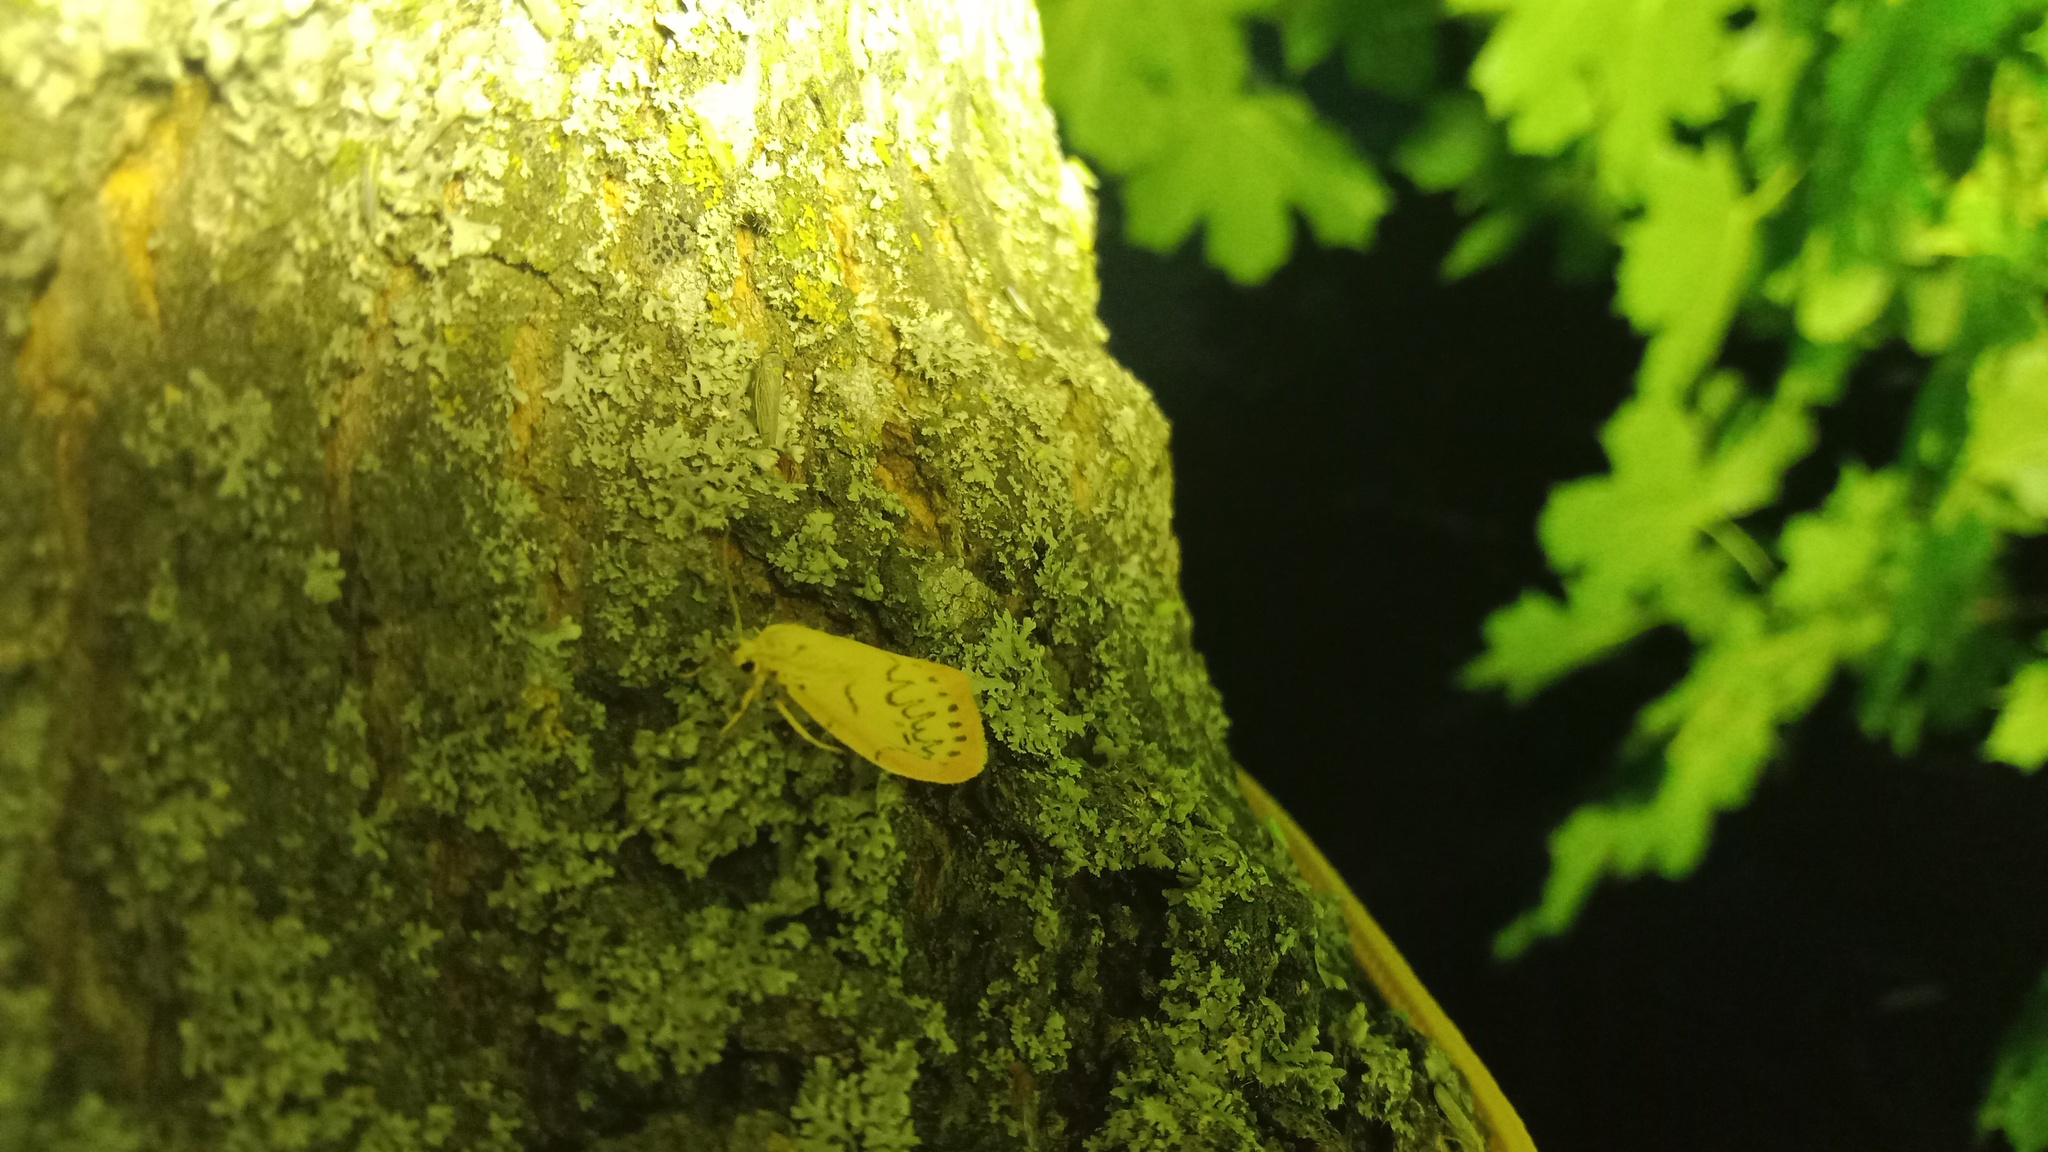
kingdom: Animalia
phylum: Arthropoda
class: Insecta
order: Lepidoptera
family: Erebidae
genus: Miltochrista
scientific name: Miltochrista miniata
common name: Rosy footman
